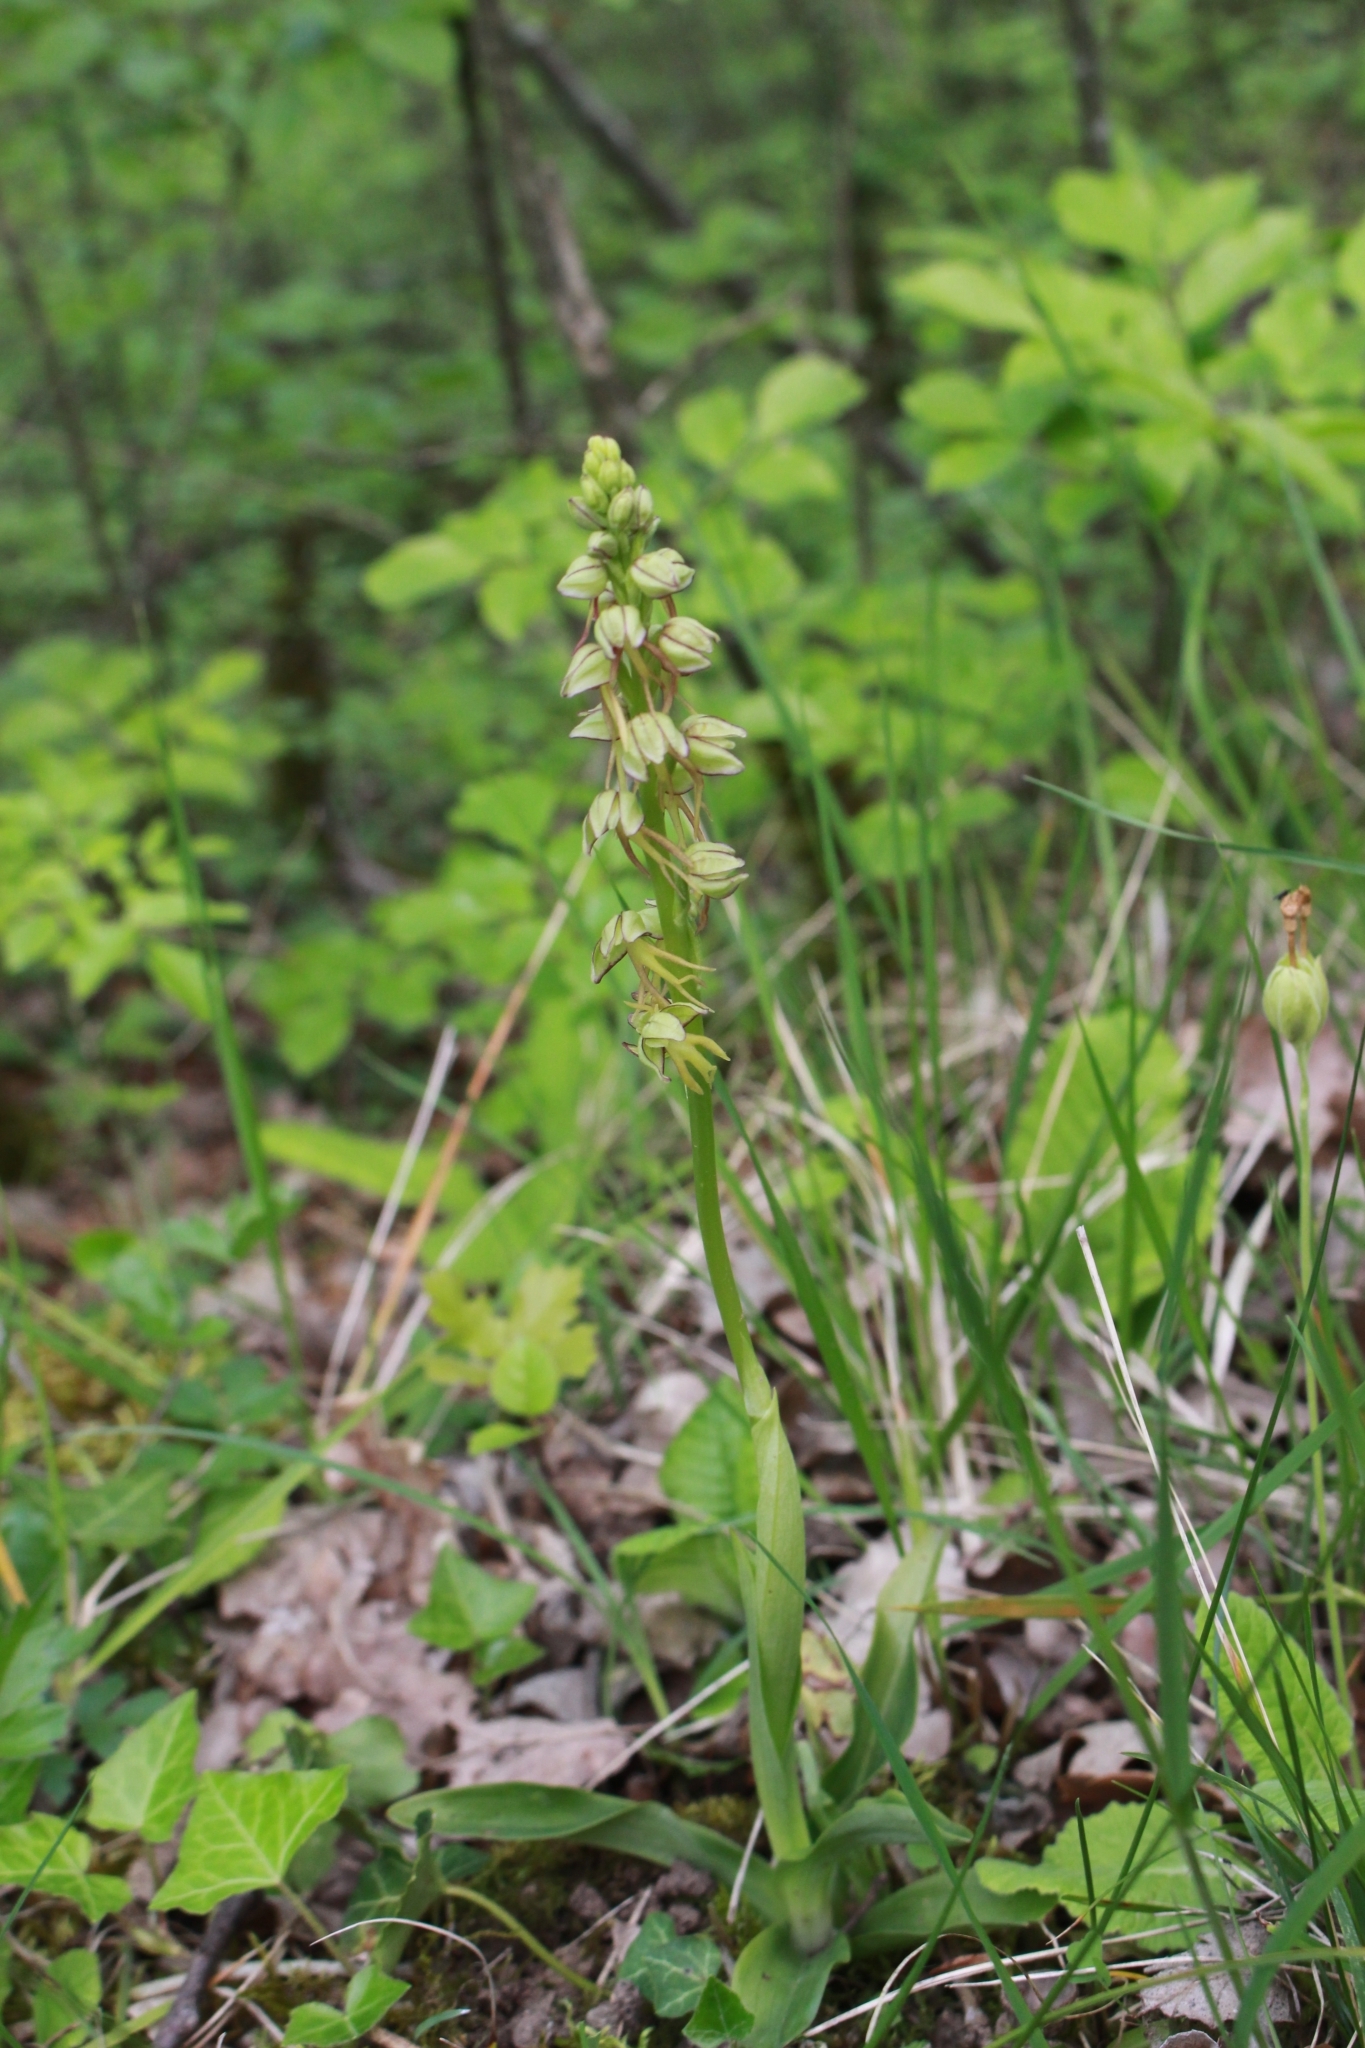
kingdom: Plantae
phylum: Tracheophyta
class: Liliopsida
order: Asparagales
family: Orchidaceae
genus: Orchis
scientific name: Orchis anthropophora
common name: Man orchid
